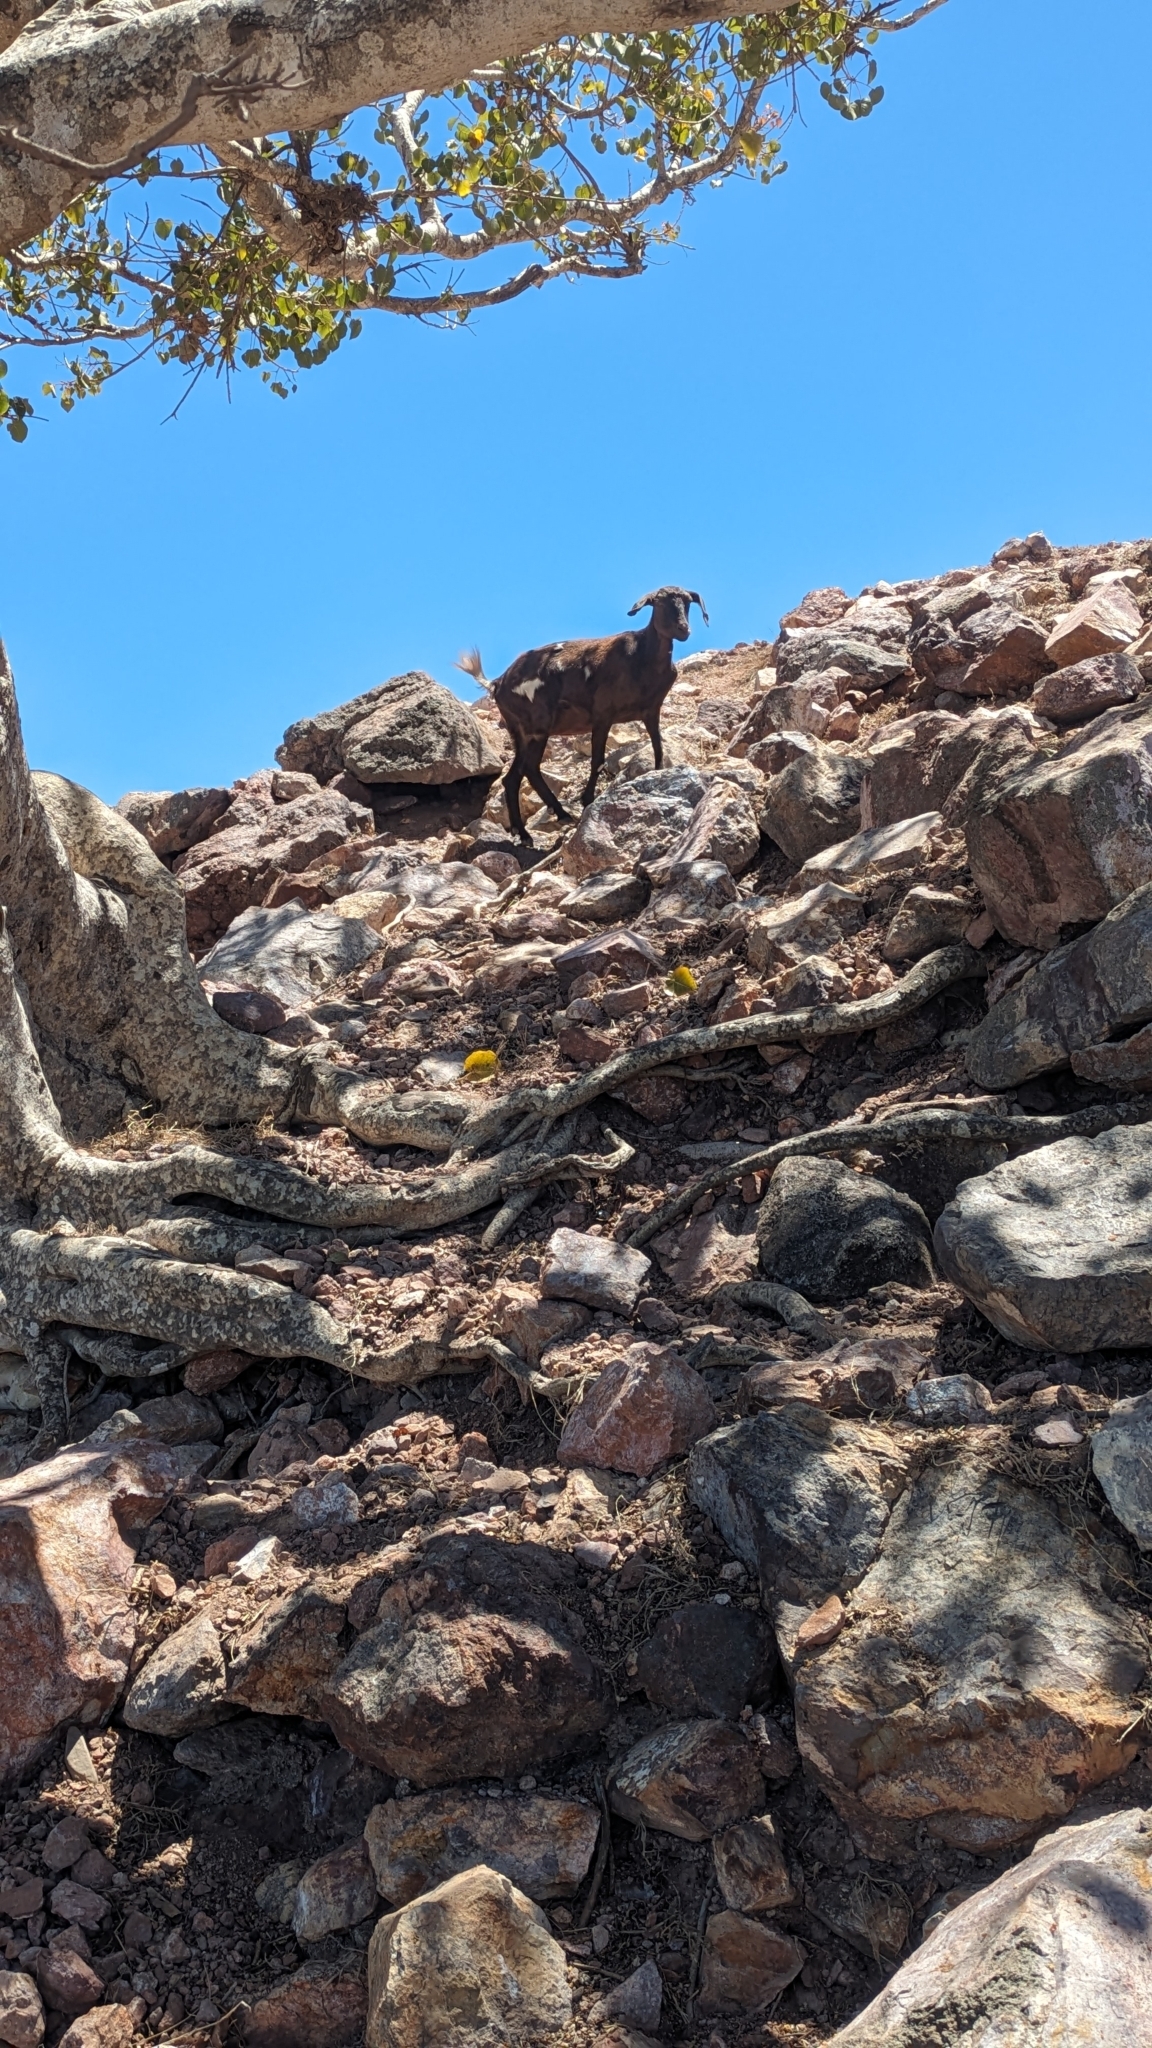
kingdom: Animalia
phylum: Chordata
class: Mammalia
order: Artiodactyla
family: Bovidae
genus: Capra
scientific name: Capra hircus
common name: Domestic goat
